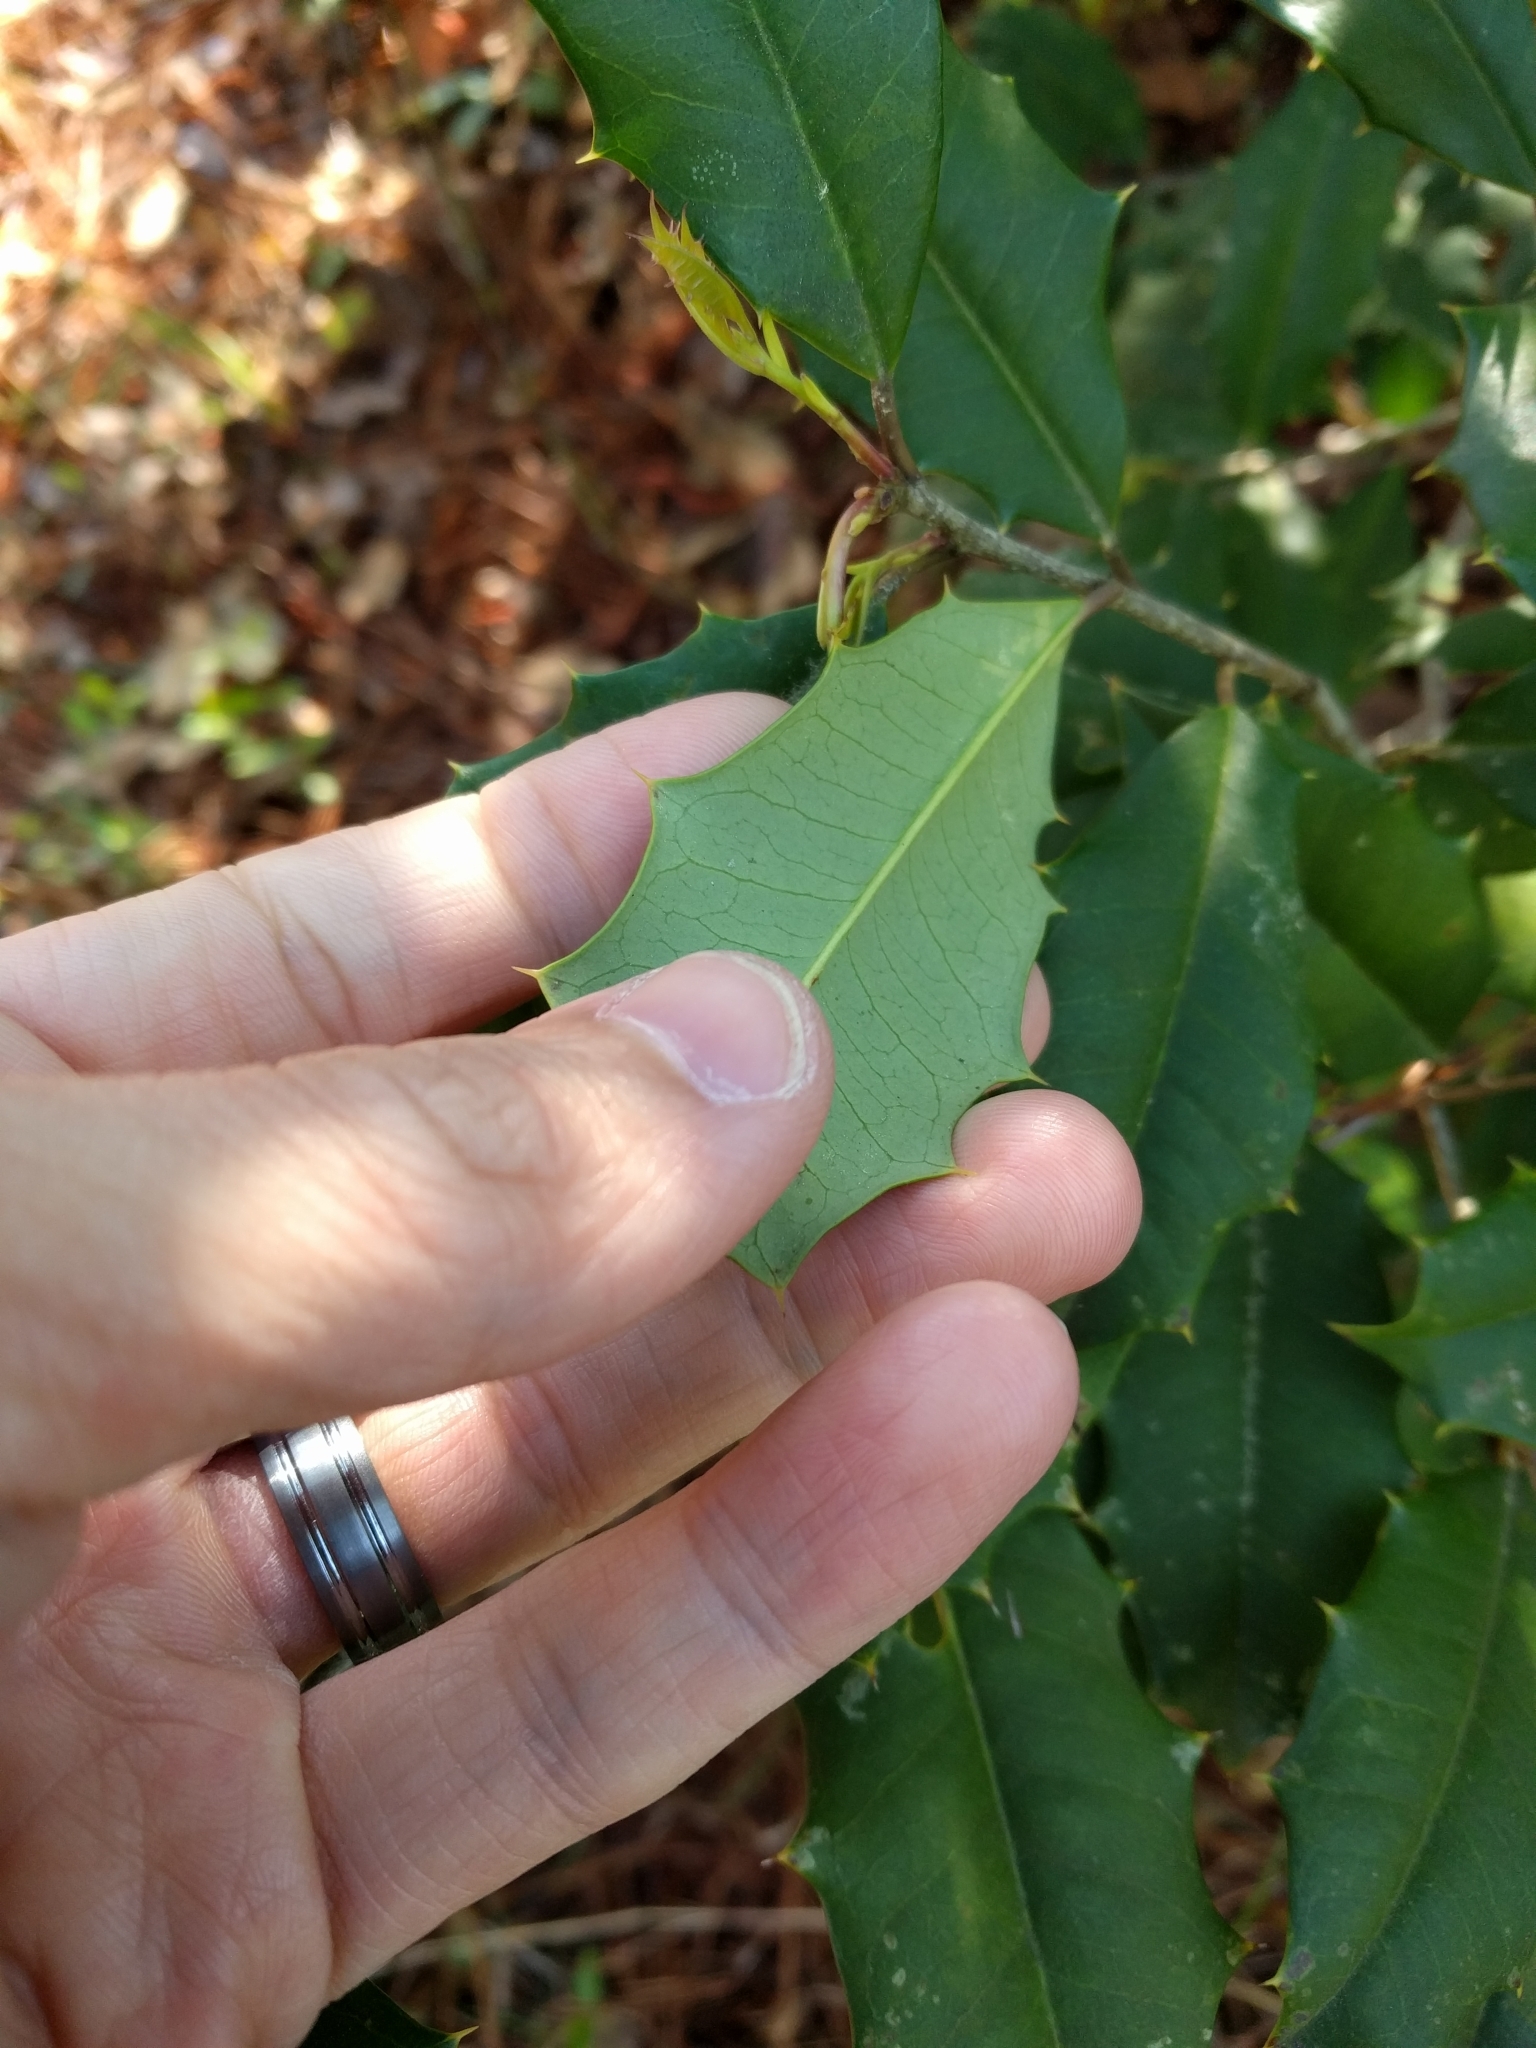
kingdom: Plantae
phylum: Tracheophyta
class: Magnoliopsida
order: Aquifoliales
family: Aquifoliaceae
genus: Ilex
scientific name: Ilex opaca
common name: American holly
